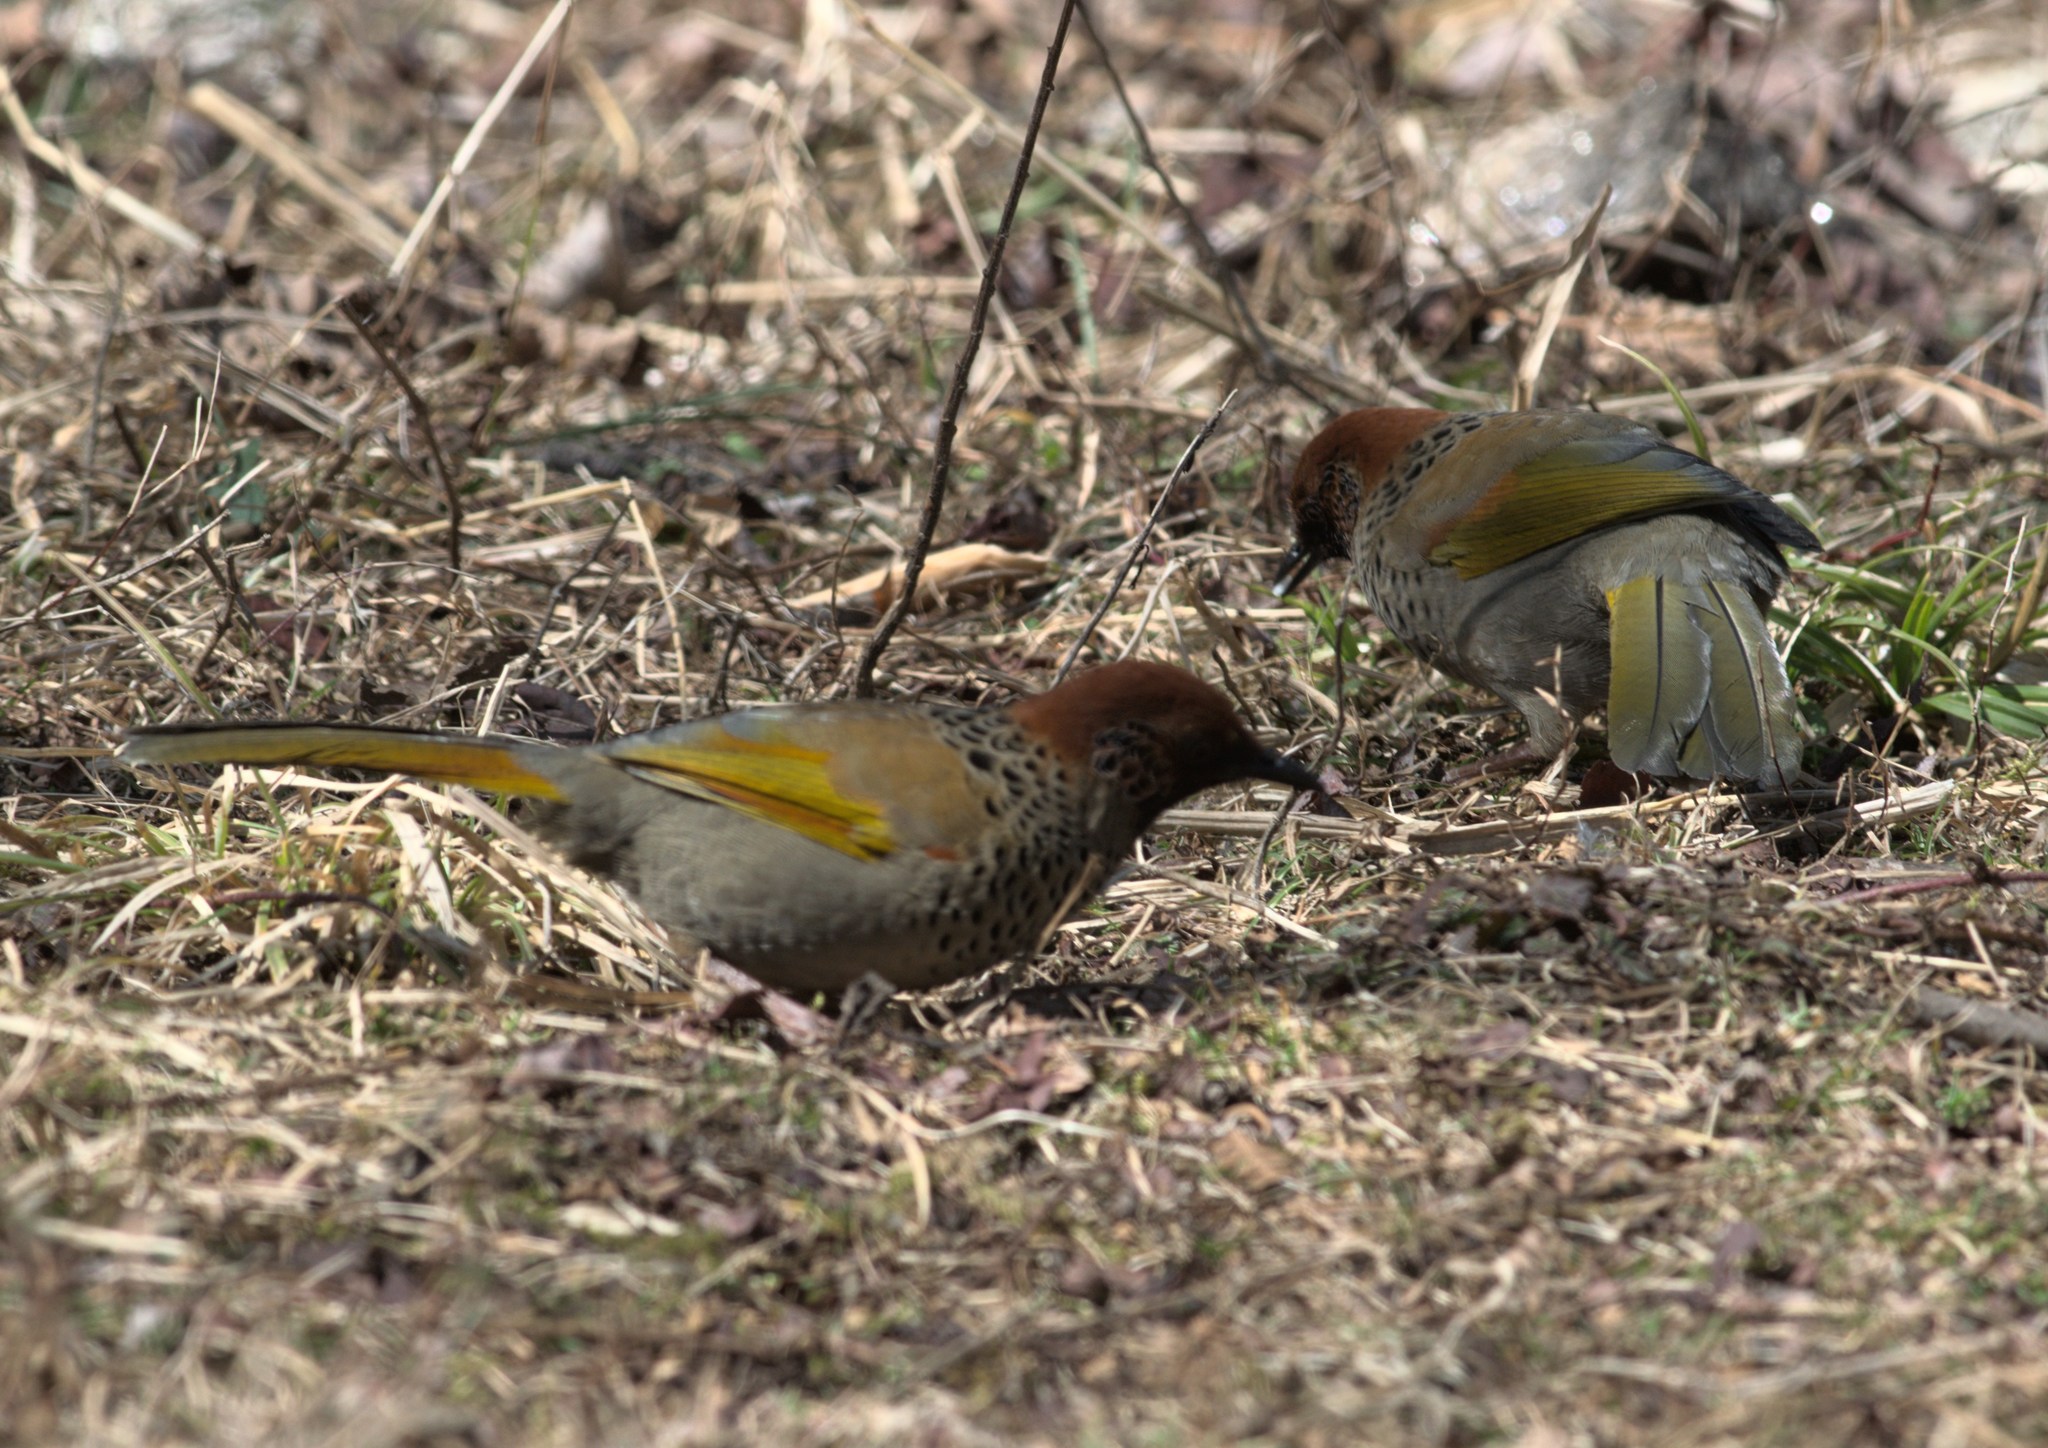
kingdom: Animalia
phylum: Chordata
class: Aves
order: Passeriformes
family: Leiothrichidae
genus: Trochalopteron
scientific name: Trochalopteron erythrocephalum
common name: Chestnut-crowned laughingthrush
